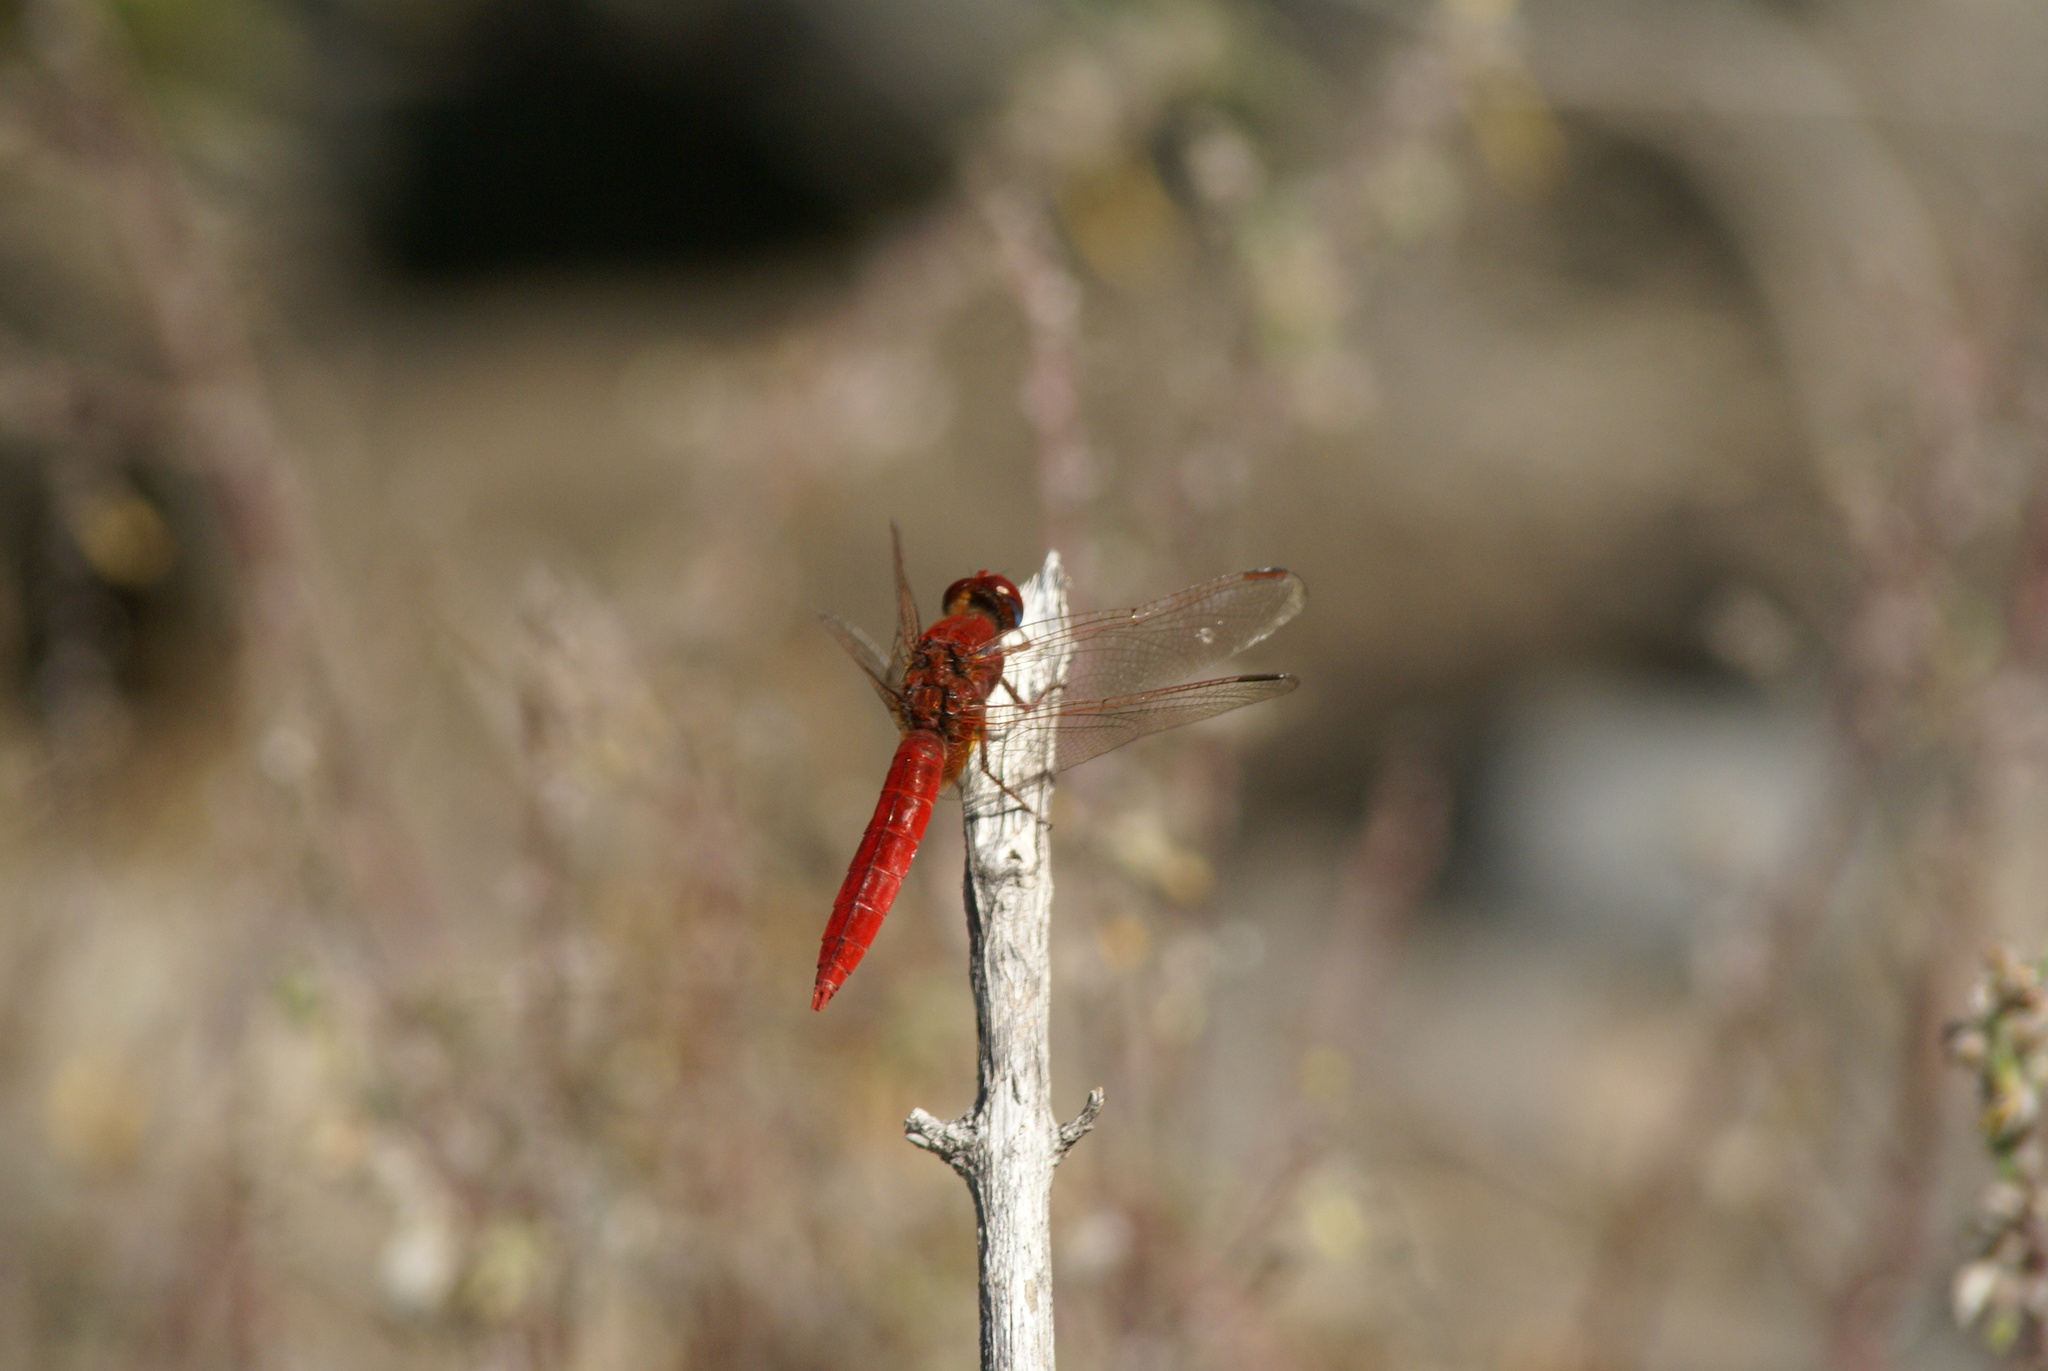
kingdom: Animalia
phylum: Arthropoda
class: Insecta
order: Odonata
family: Libellulidae
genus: Crocothemis
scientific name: Crocothemis erythraea
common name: Scarlet dragonfly
